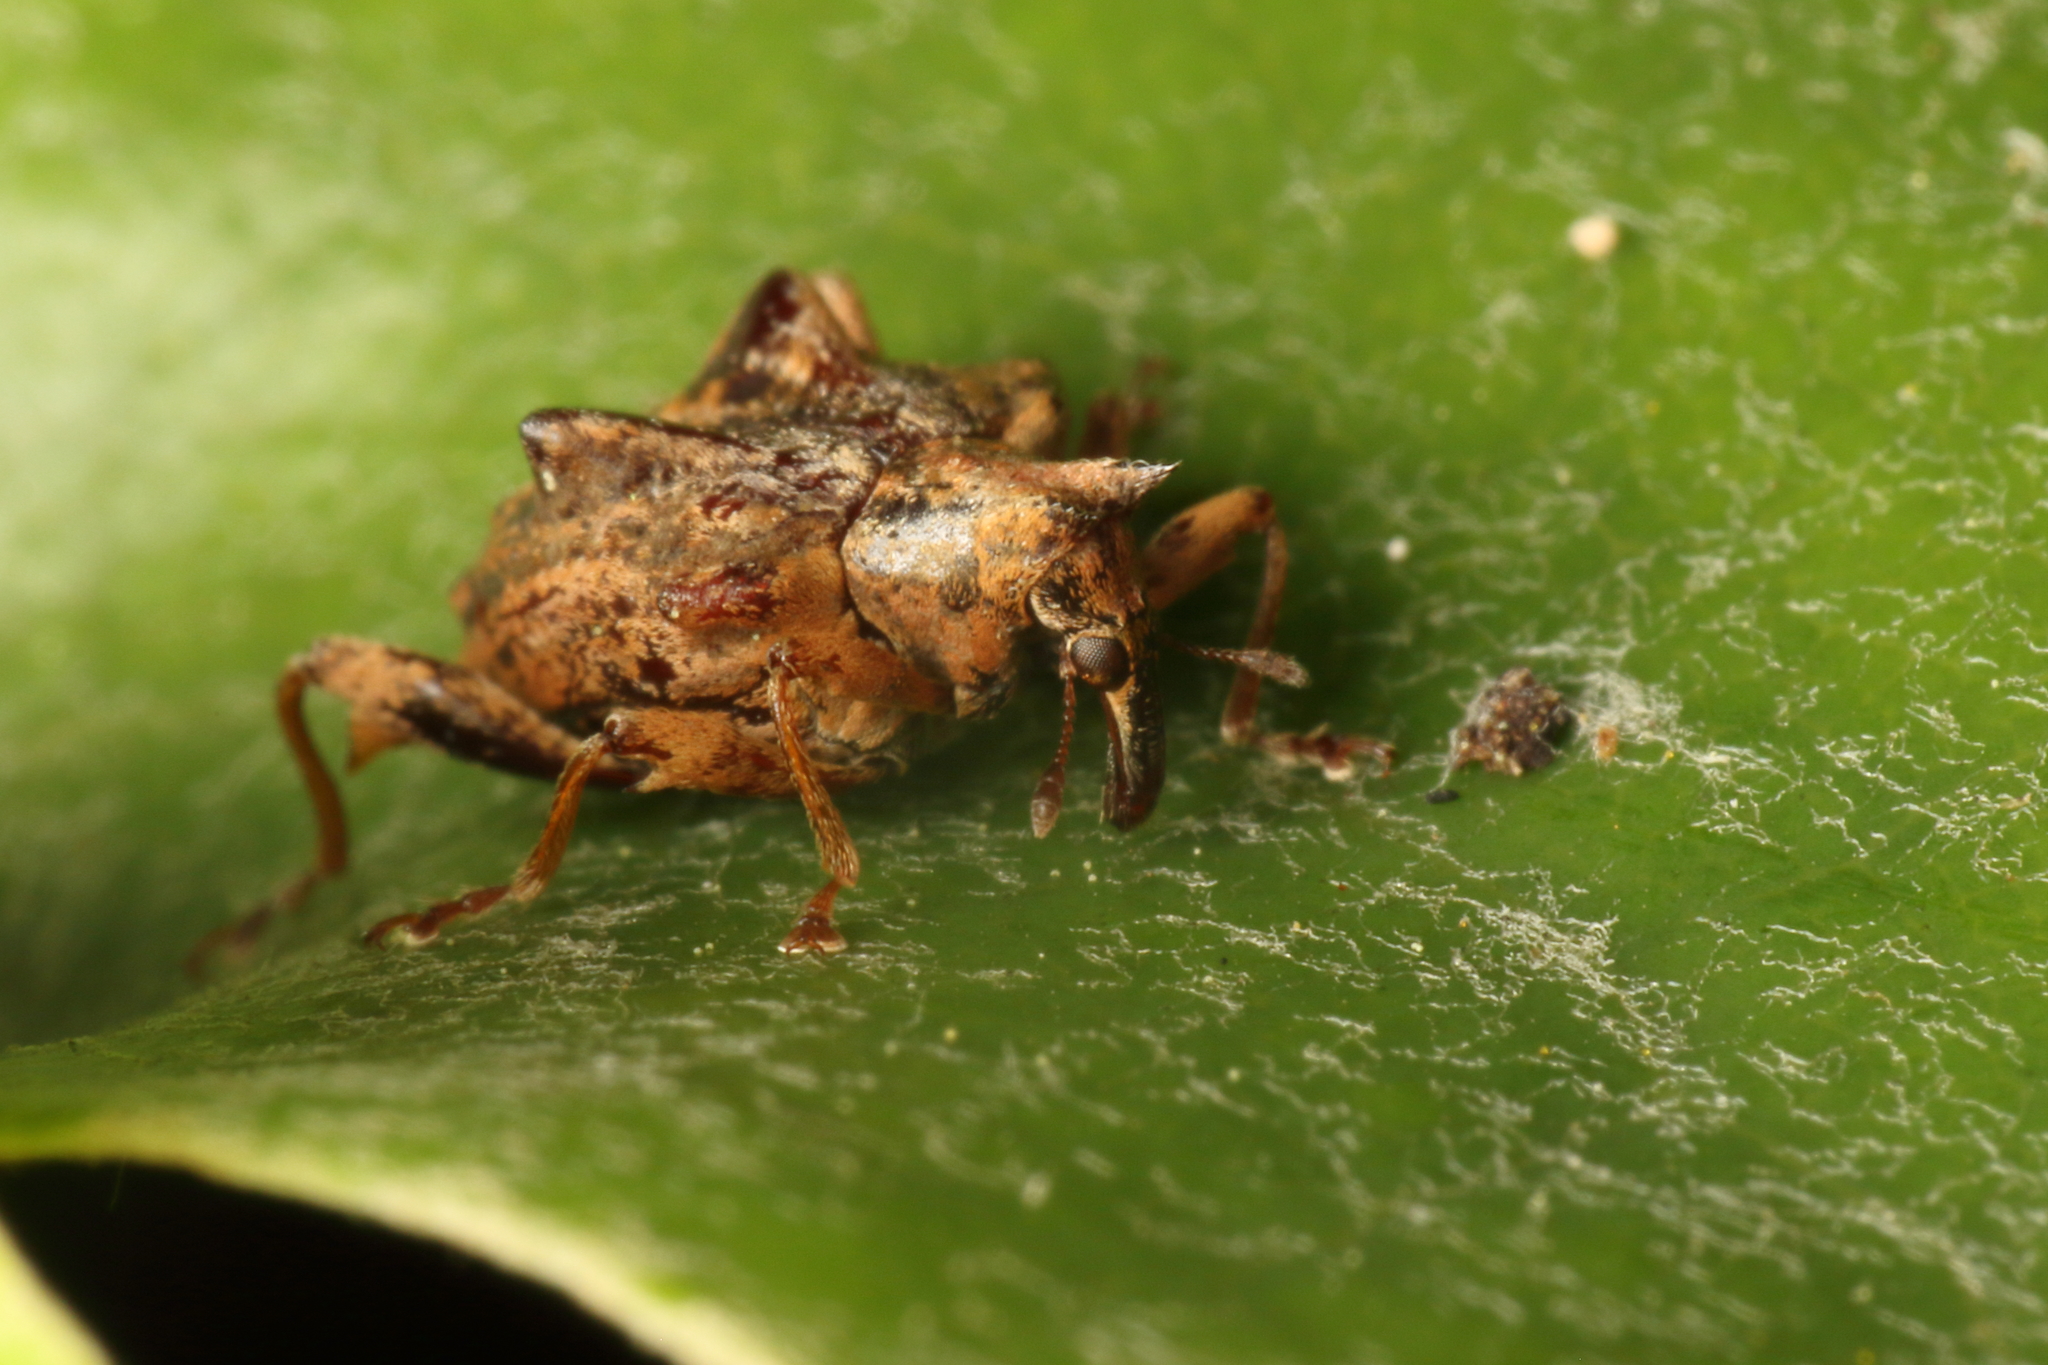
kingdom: Animalia
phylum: Arthropoda
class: Insecta
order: Coleoptera
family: Curculionidae
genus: Gonoropterus
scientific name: Gonoropterus spinicollis
